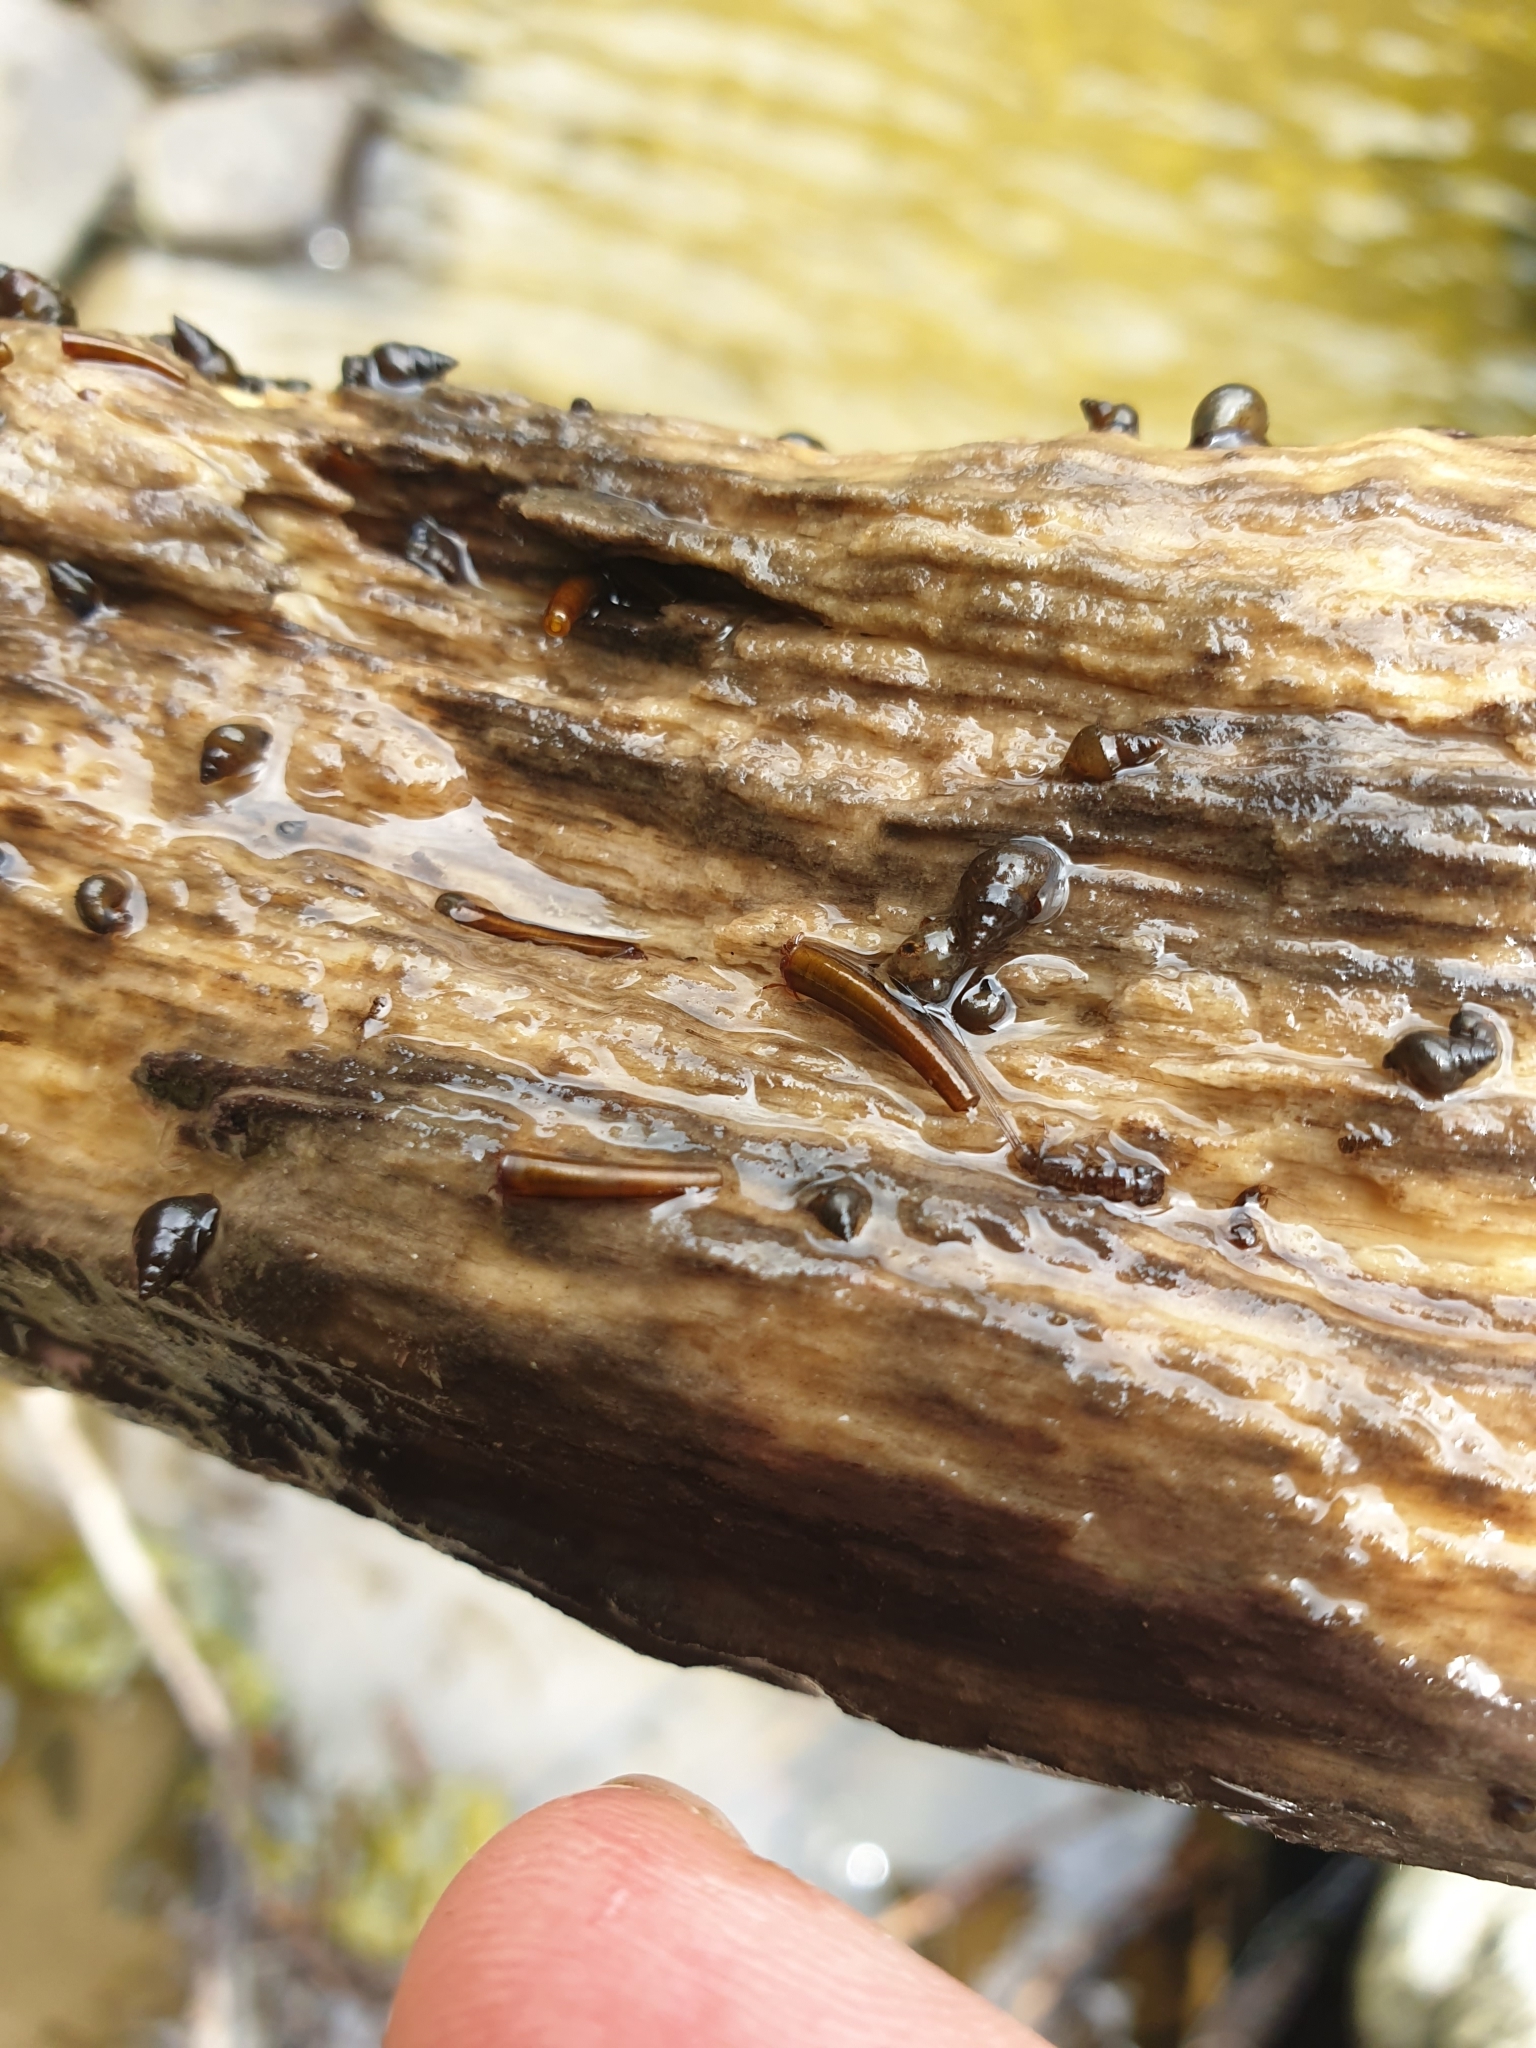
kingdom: Animalia
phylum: Arthropoda
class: Insecta
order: Trichoptera
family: Conoesucidae
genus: Olinga
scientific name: Olinga
